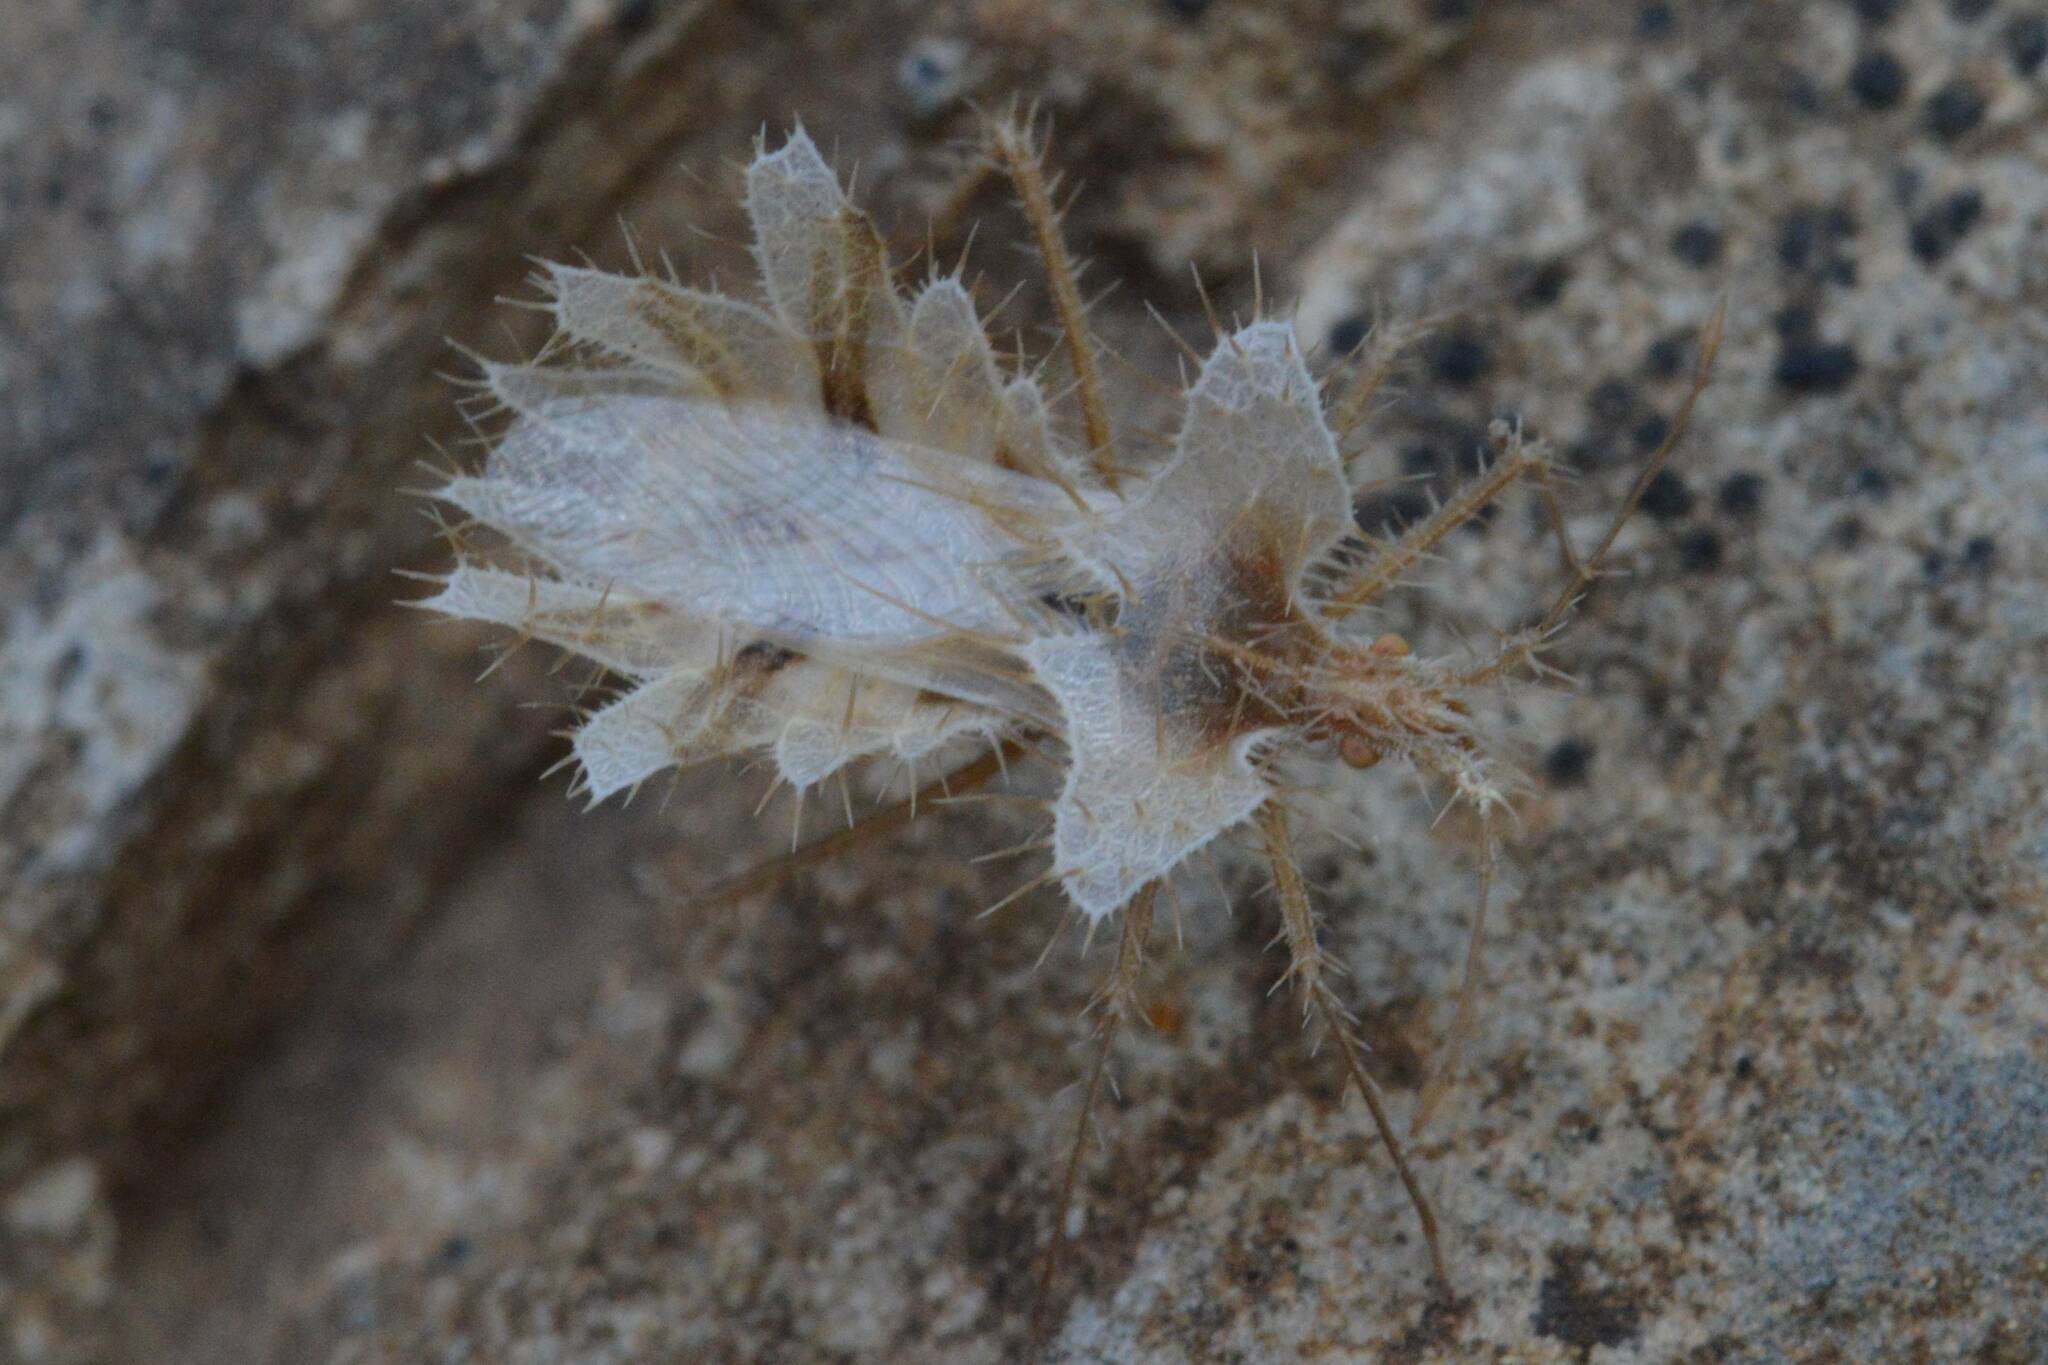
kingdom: Animalia
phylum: Arthropoda
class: Insecta
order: Hemiptera
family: Coreidae
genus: Phyllomorpha
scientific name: Phyllomorpha laciniata
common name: Golden egg bug
